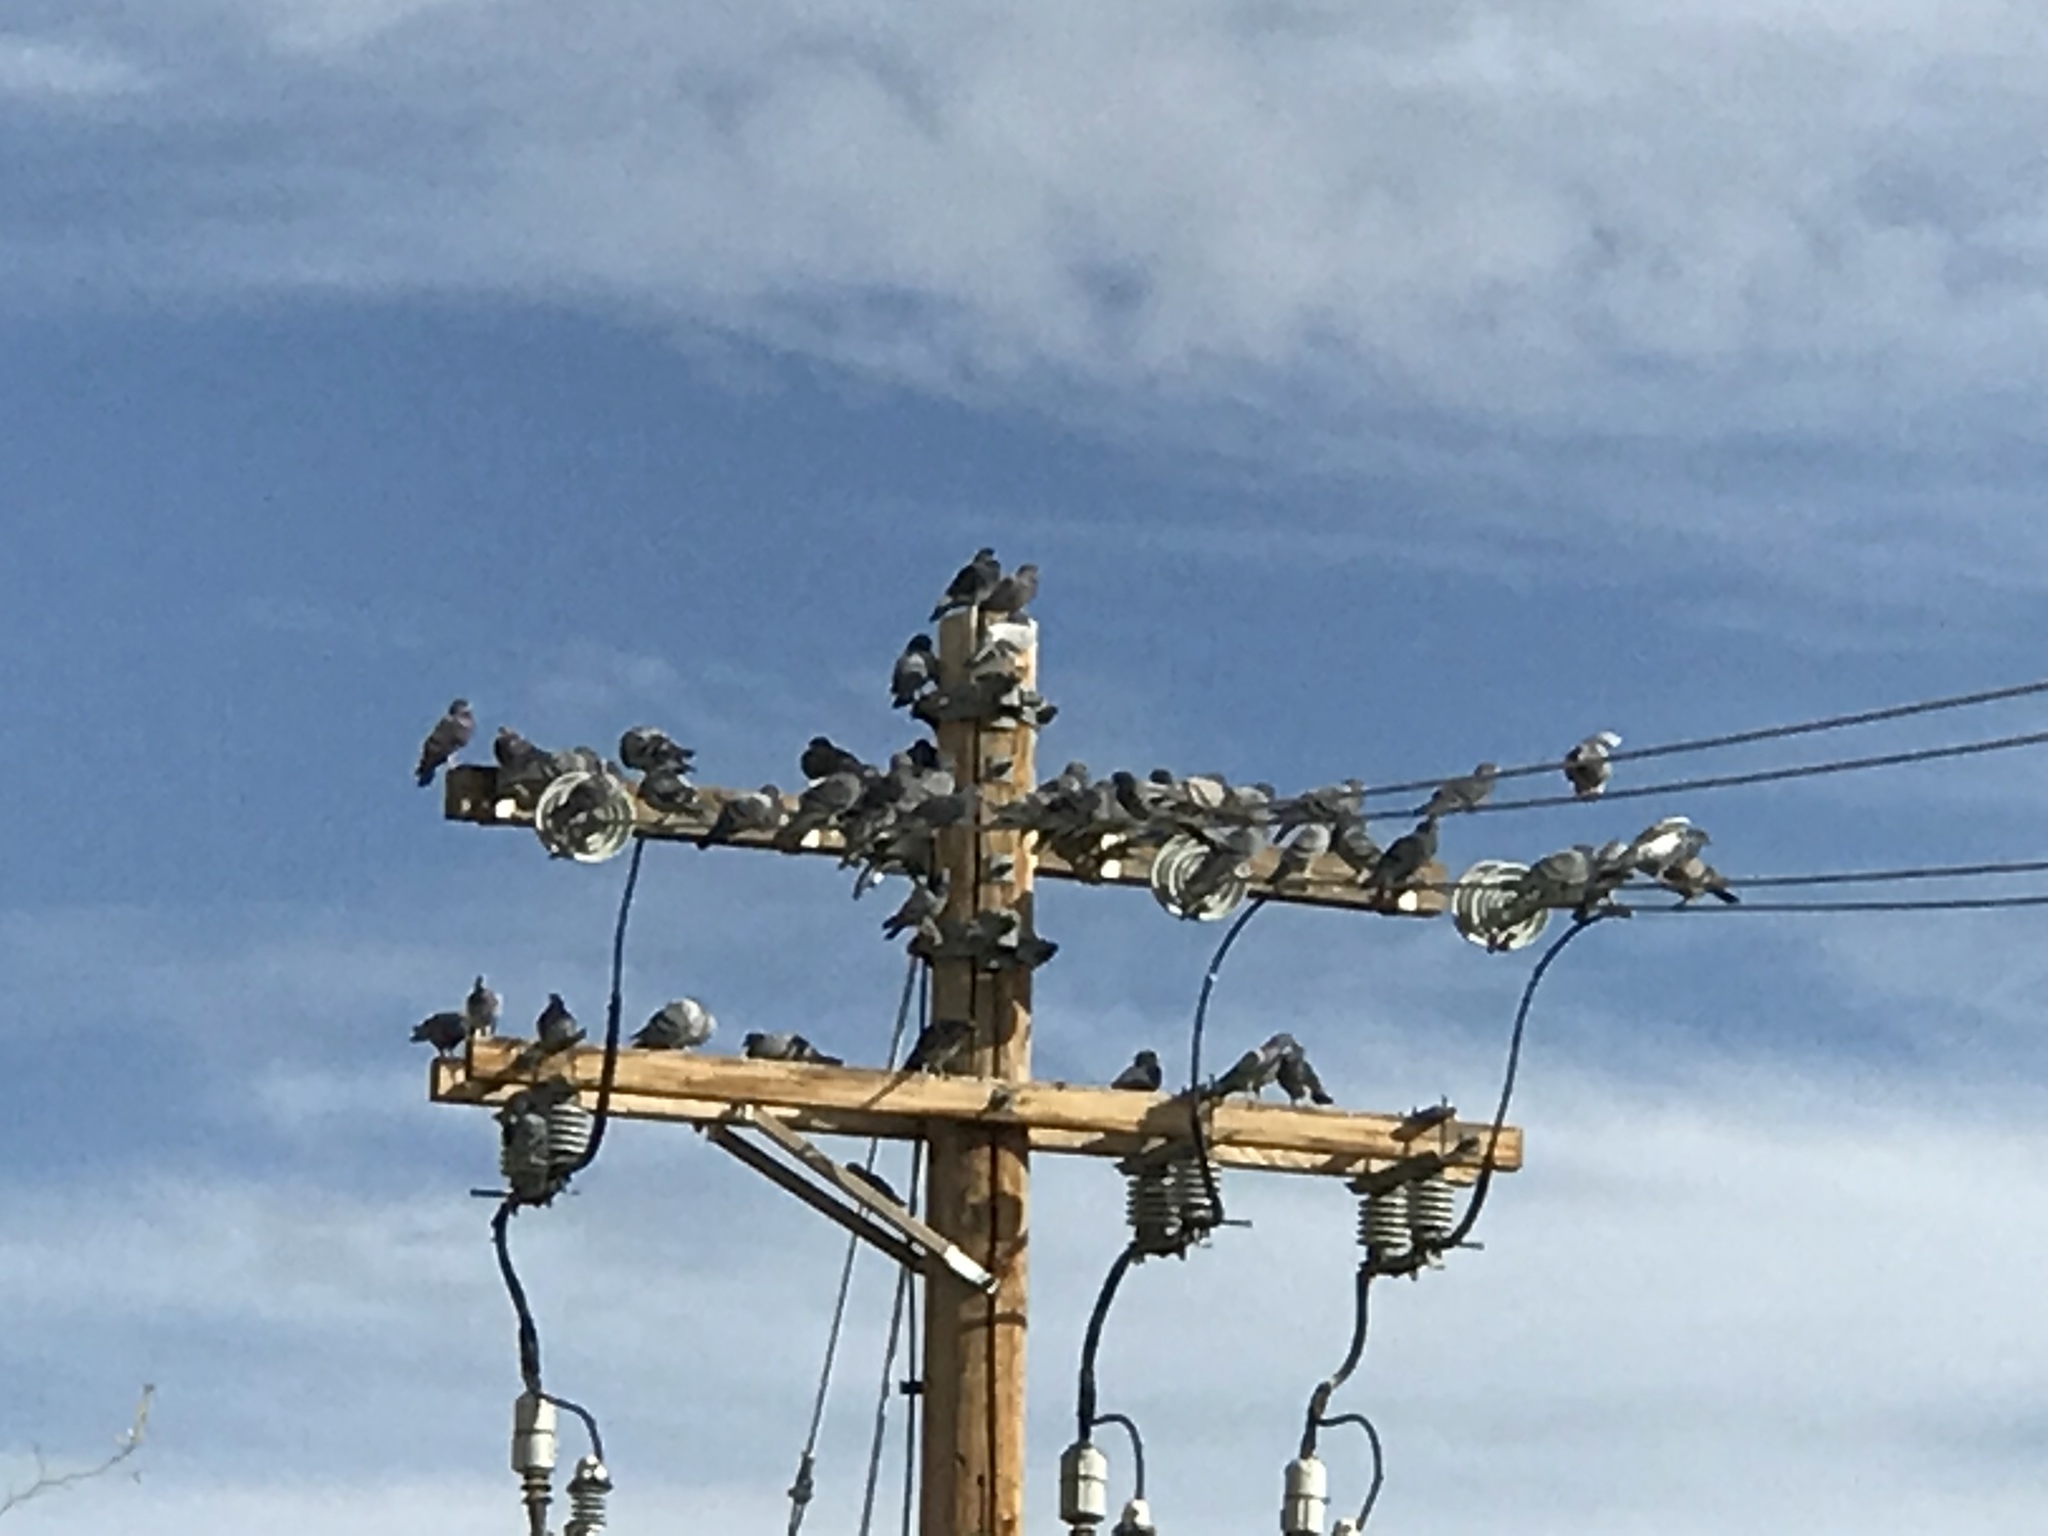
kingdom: Animalia
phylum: Chordata
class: Aves
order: Columbiformes
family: Columbidae
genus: Columba
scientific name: Columba livia
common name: Rock pigeon
